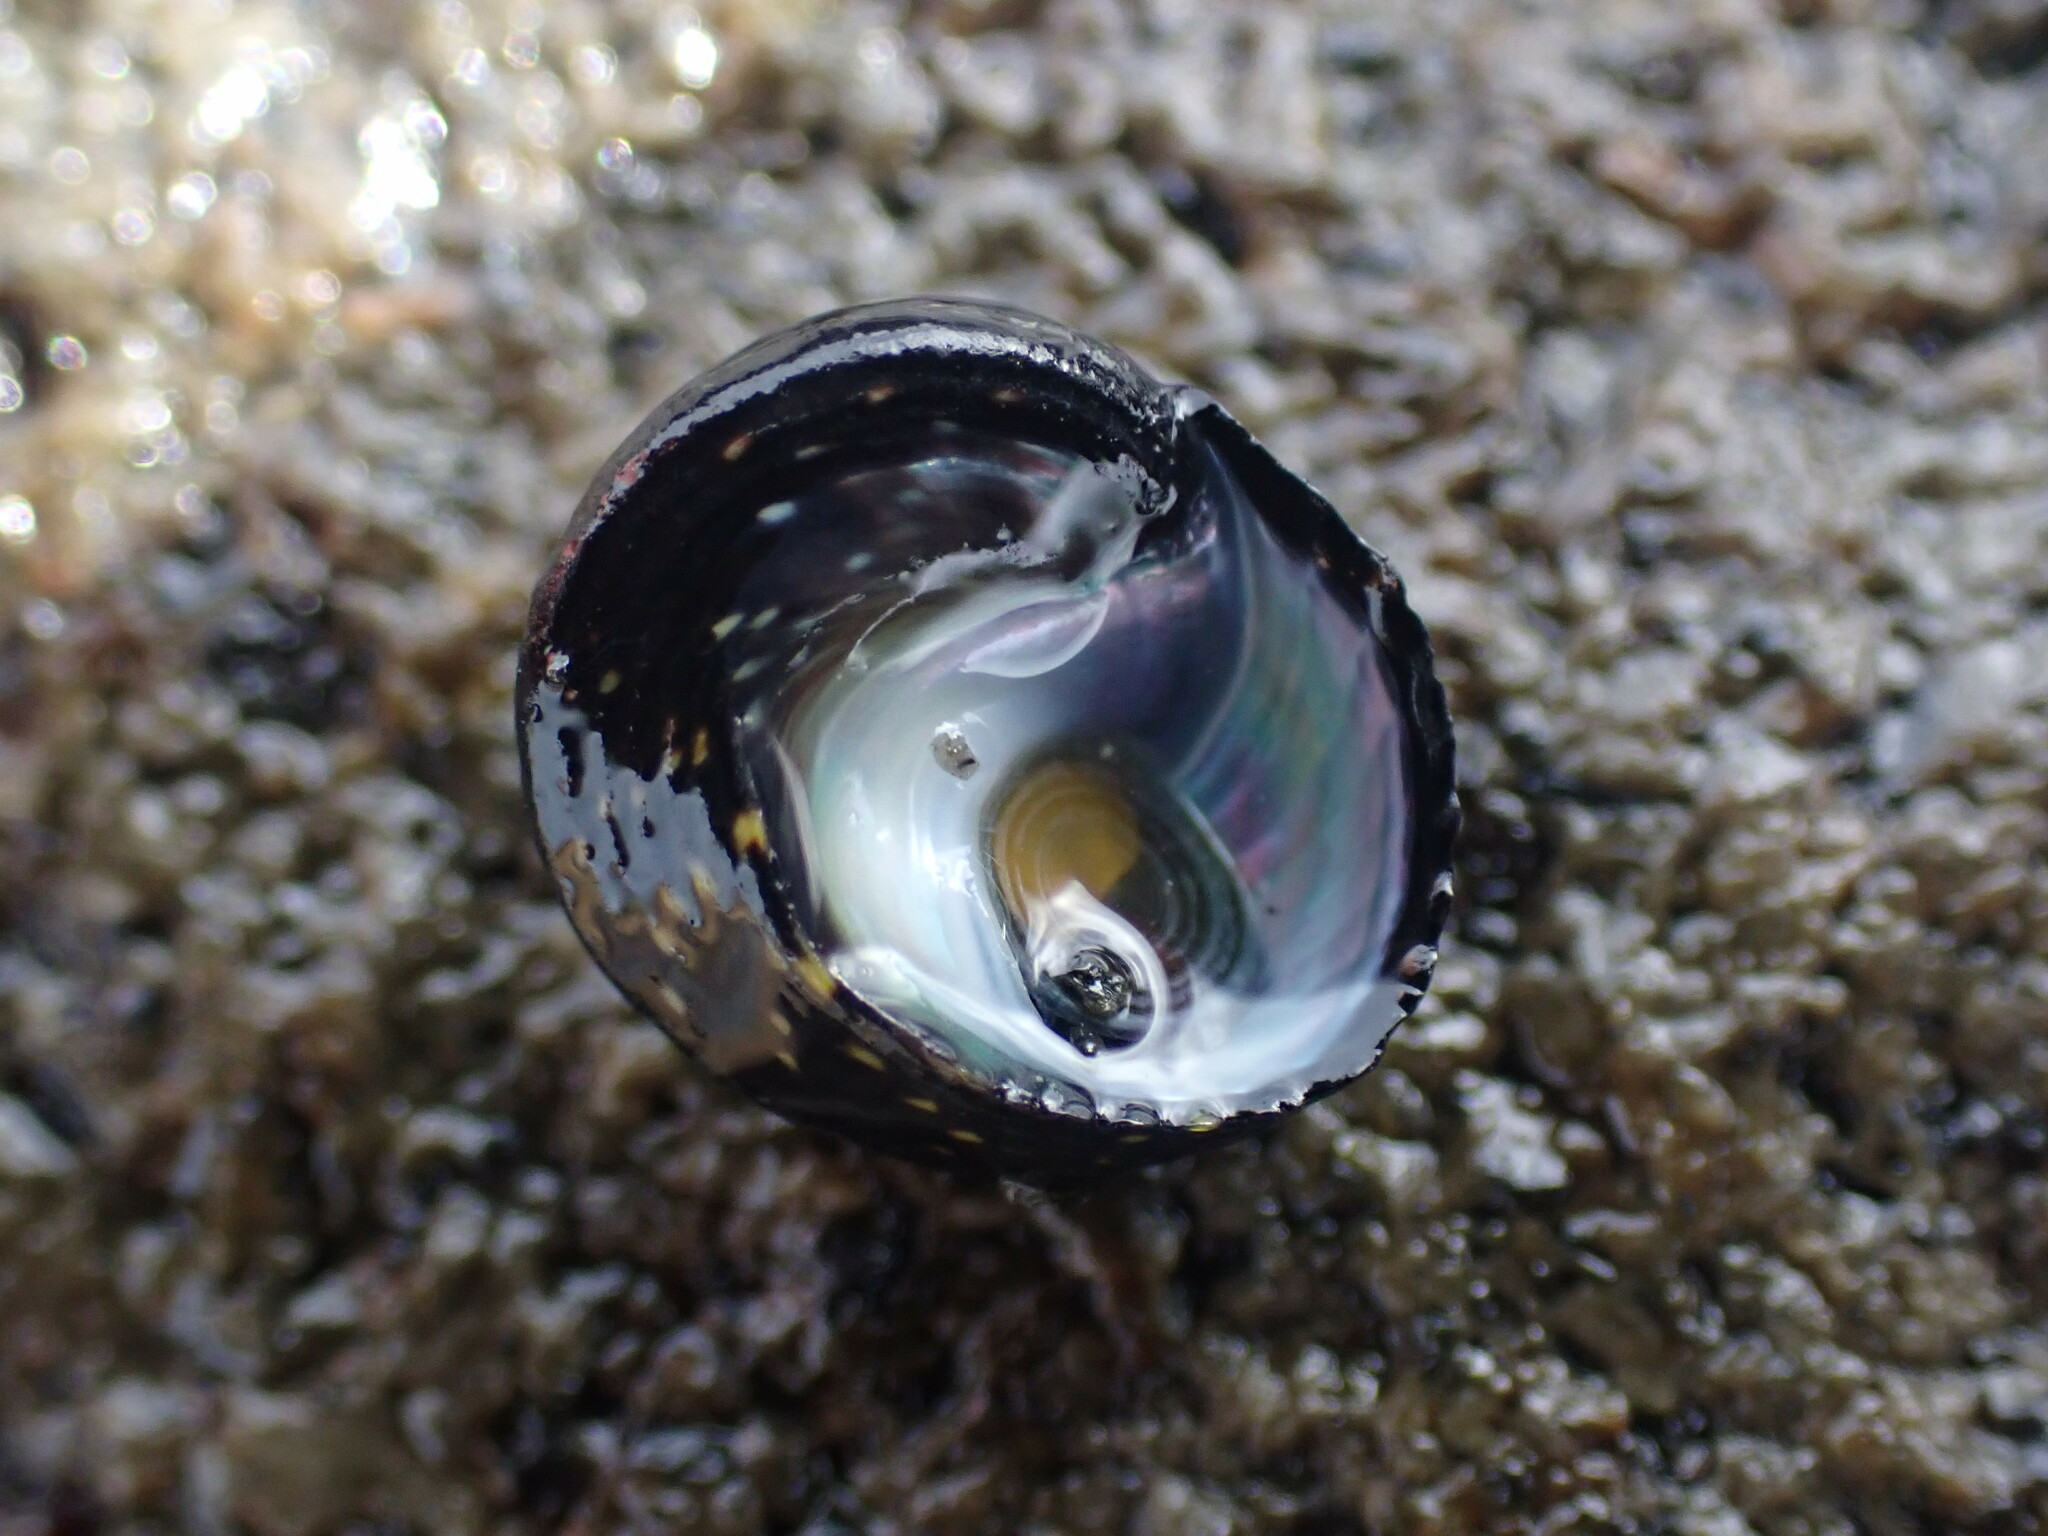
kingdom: Animalia
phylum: Mollusca
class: Gastropoda
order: Trochida
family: Trochidae
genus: Diloma
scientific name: Diloma aridum
